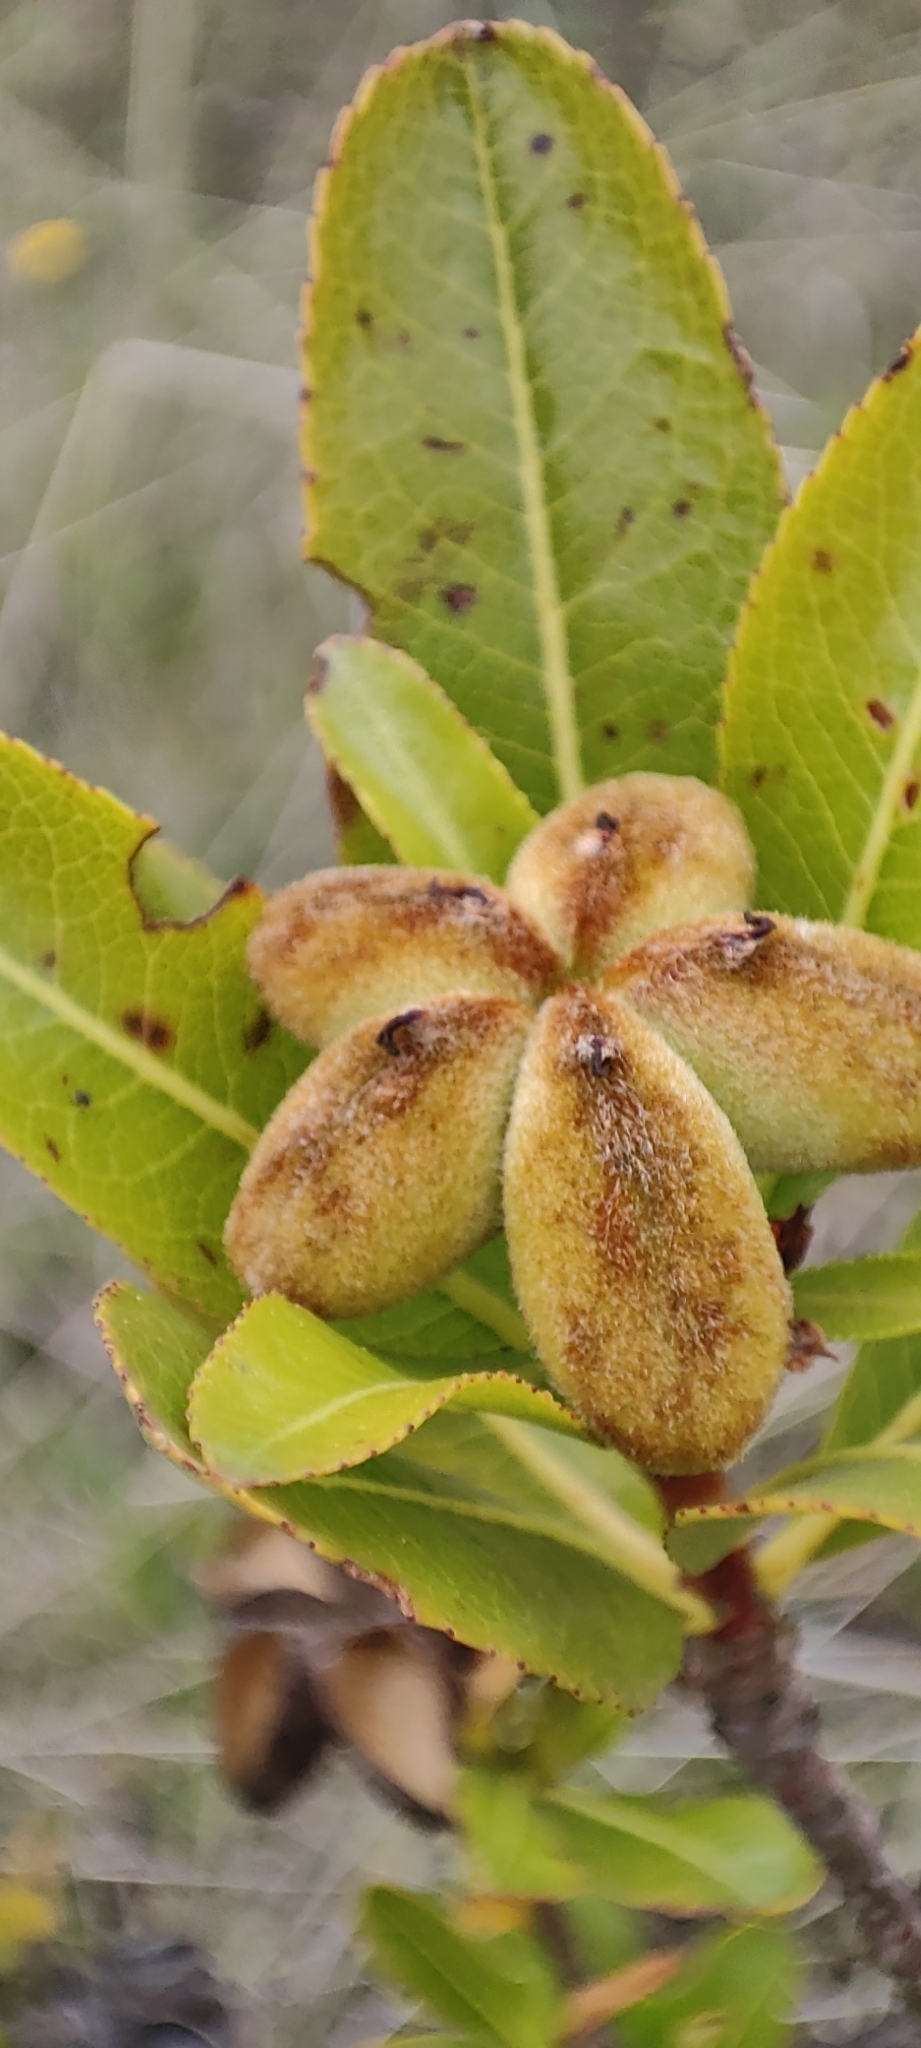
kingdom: Plantae
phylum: Tracheophyta
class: Magnoliopsida
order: Rosales
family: Rosaceae
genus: Kageneckia
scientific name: Kageneckia lanceolata
